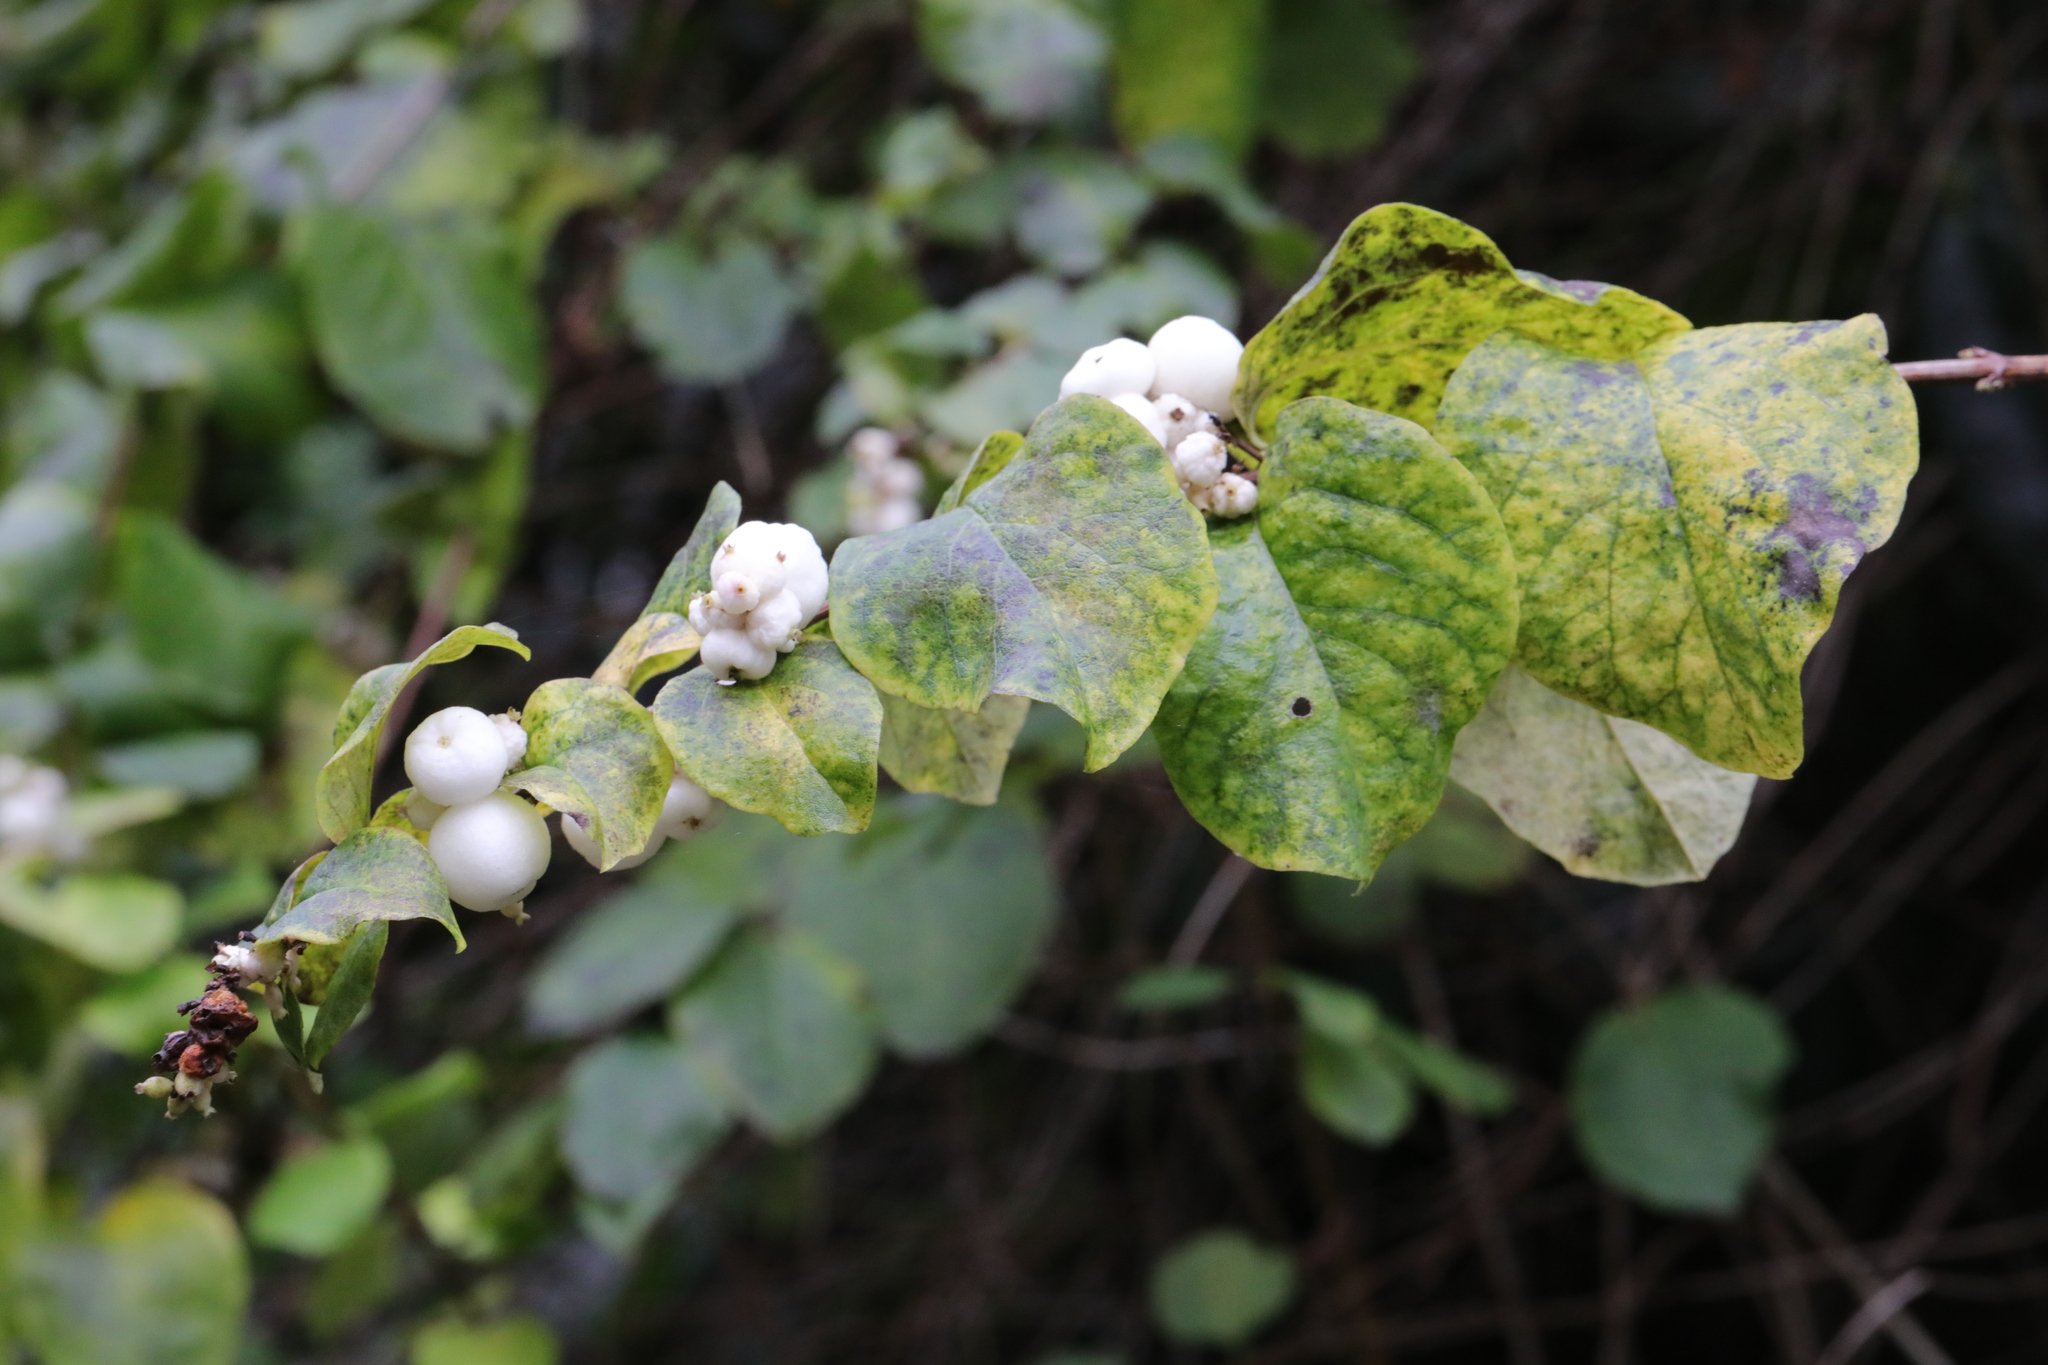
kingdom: Plantae
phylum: Tracheophyta
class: Magnoliopsida
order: Dipsacales
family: Caprifoliaceae
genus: Symphoricarpos
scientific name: Symphoricarpos albus
